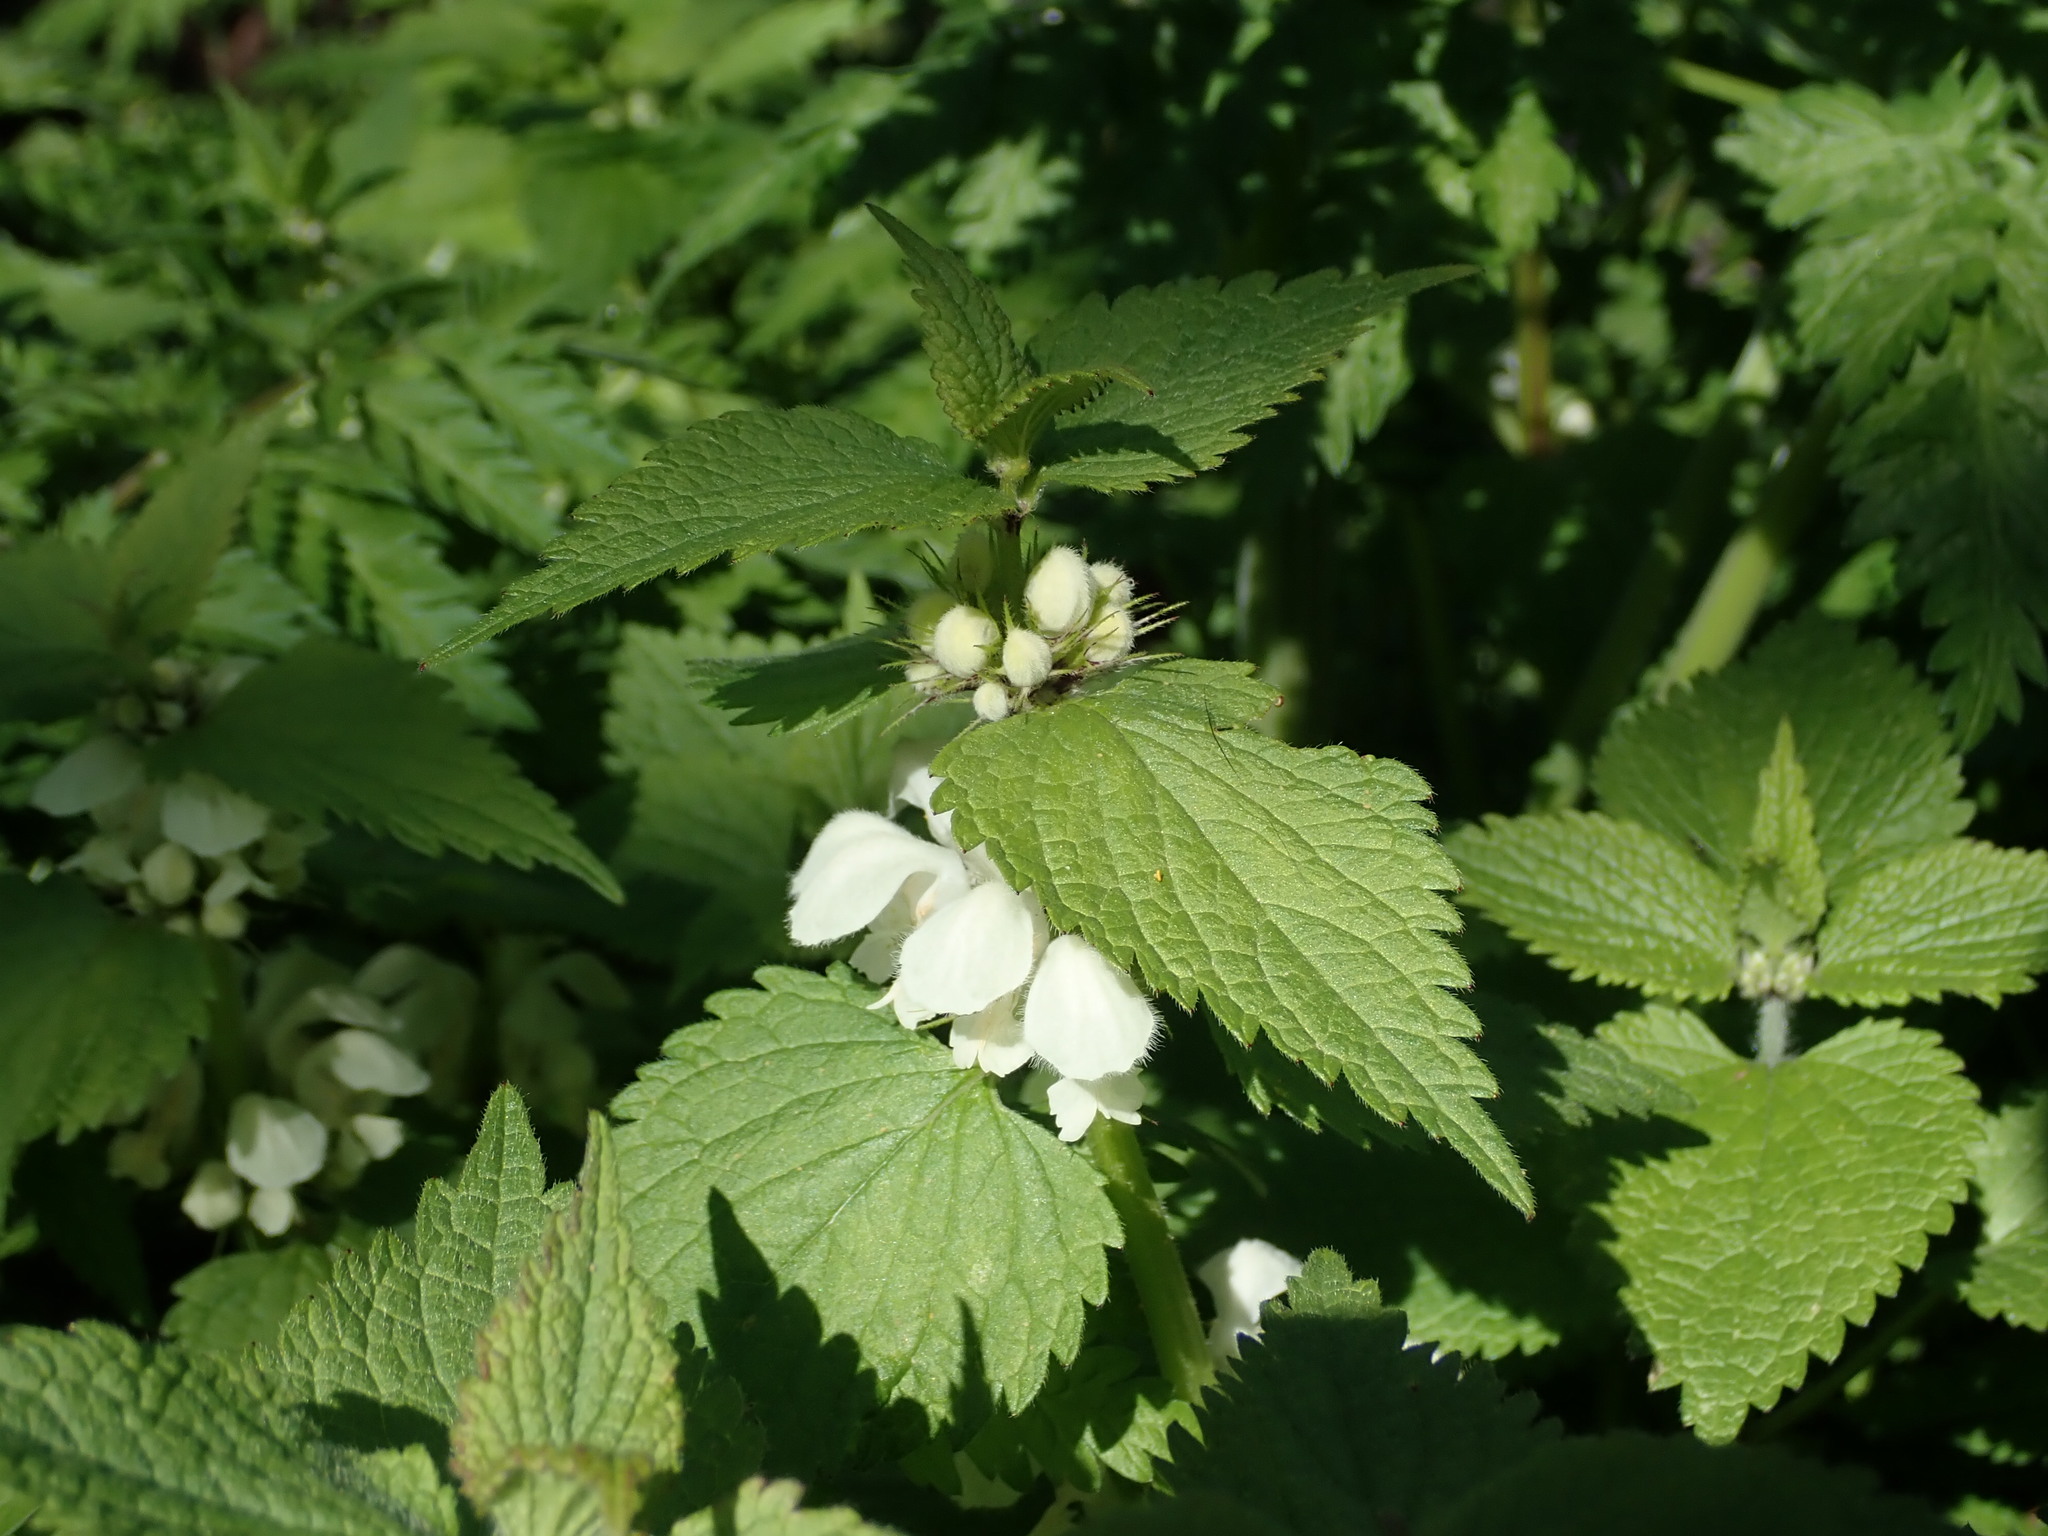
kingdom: Plantae
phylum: Tracheophyta
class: Magnoliopsida
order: Lamiales
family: Lamiaceae
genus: Lamium
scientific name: Lamium album
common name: White dead-nettle
